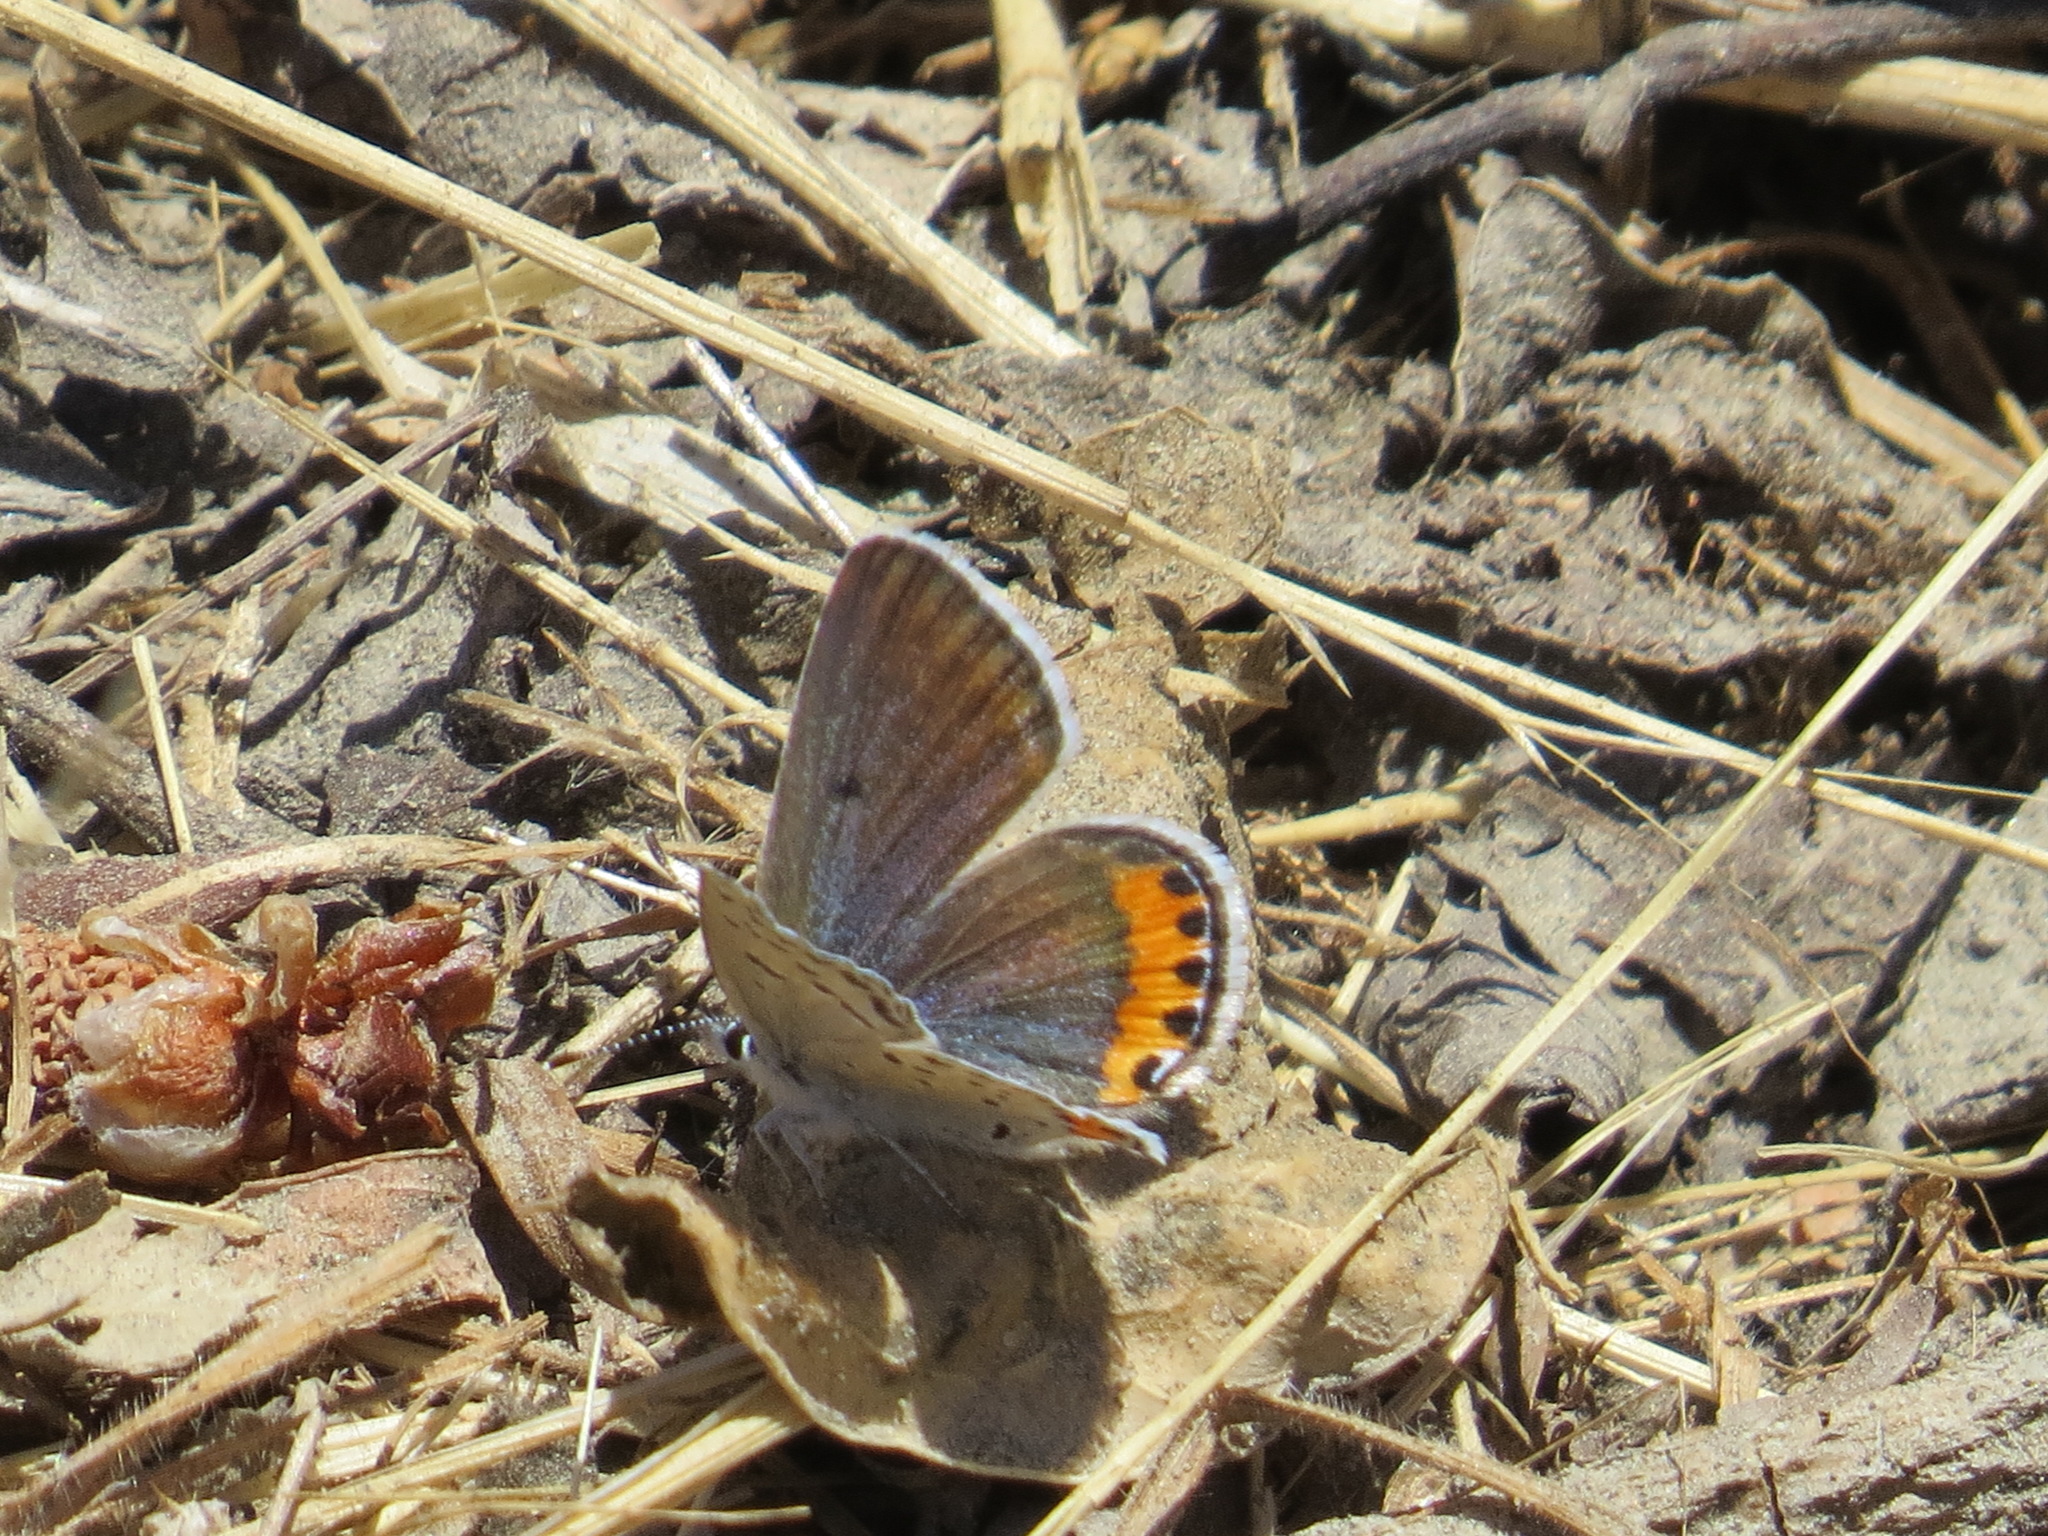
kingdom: Animalia
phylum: Arthropoda
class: Insecta
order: Lepidoptera
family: Lycaenidae
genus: Icaricia
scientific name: Icaricia acmon
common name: Acmon blue
